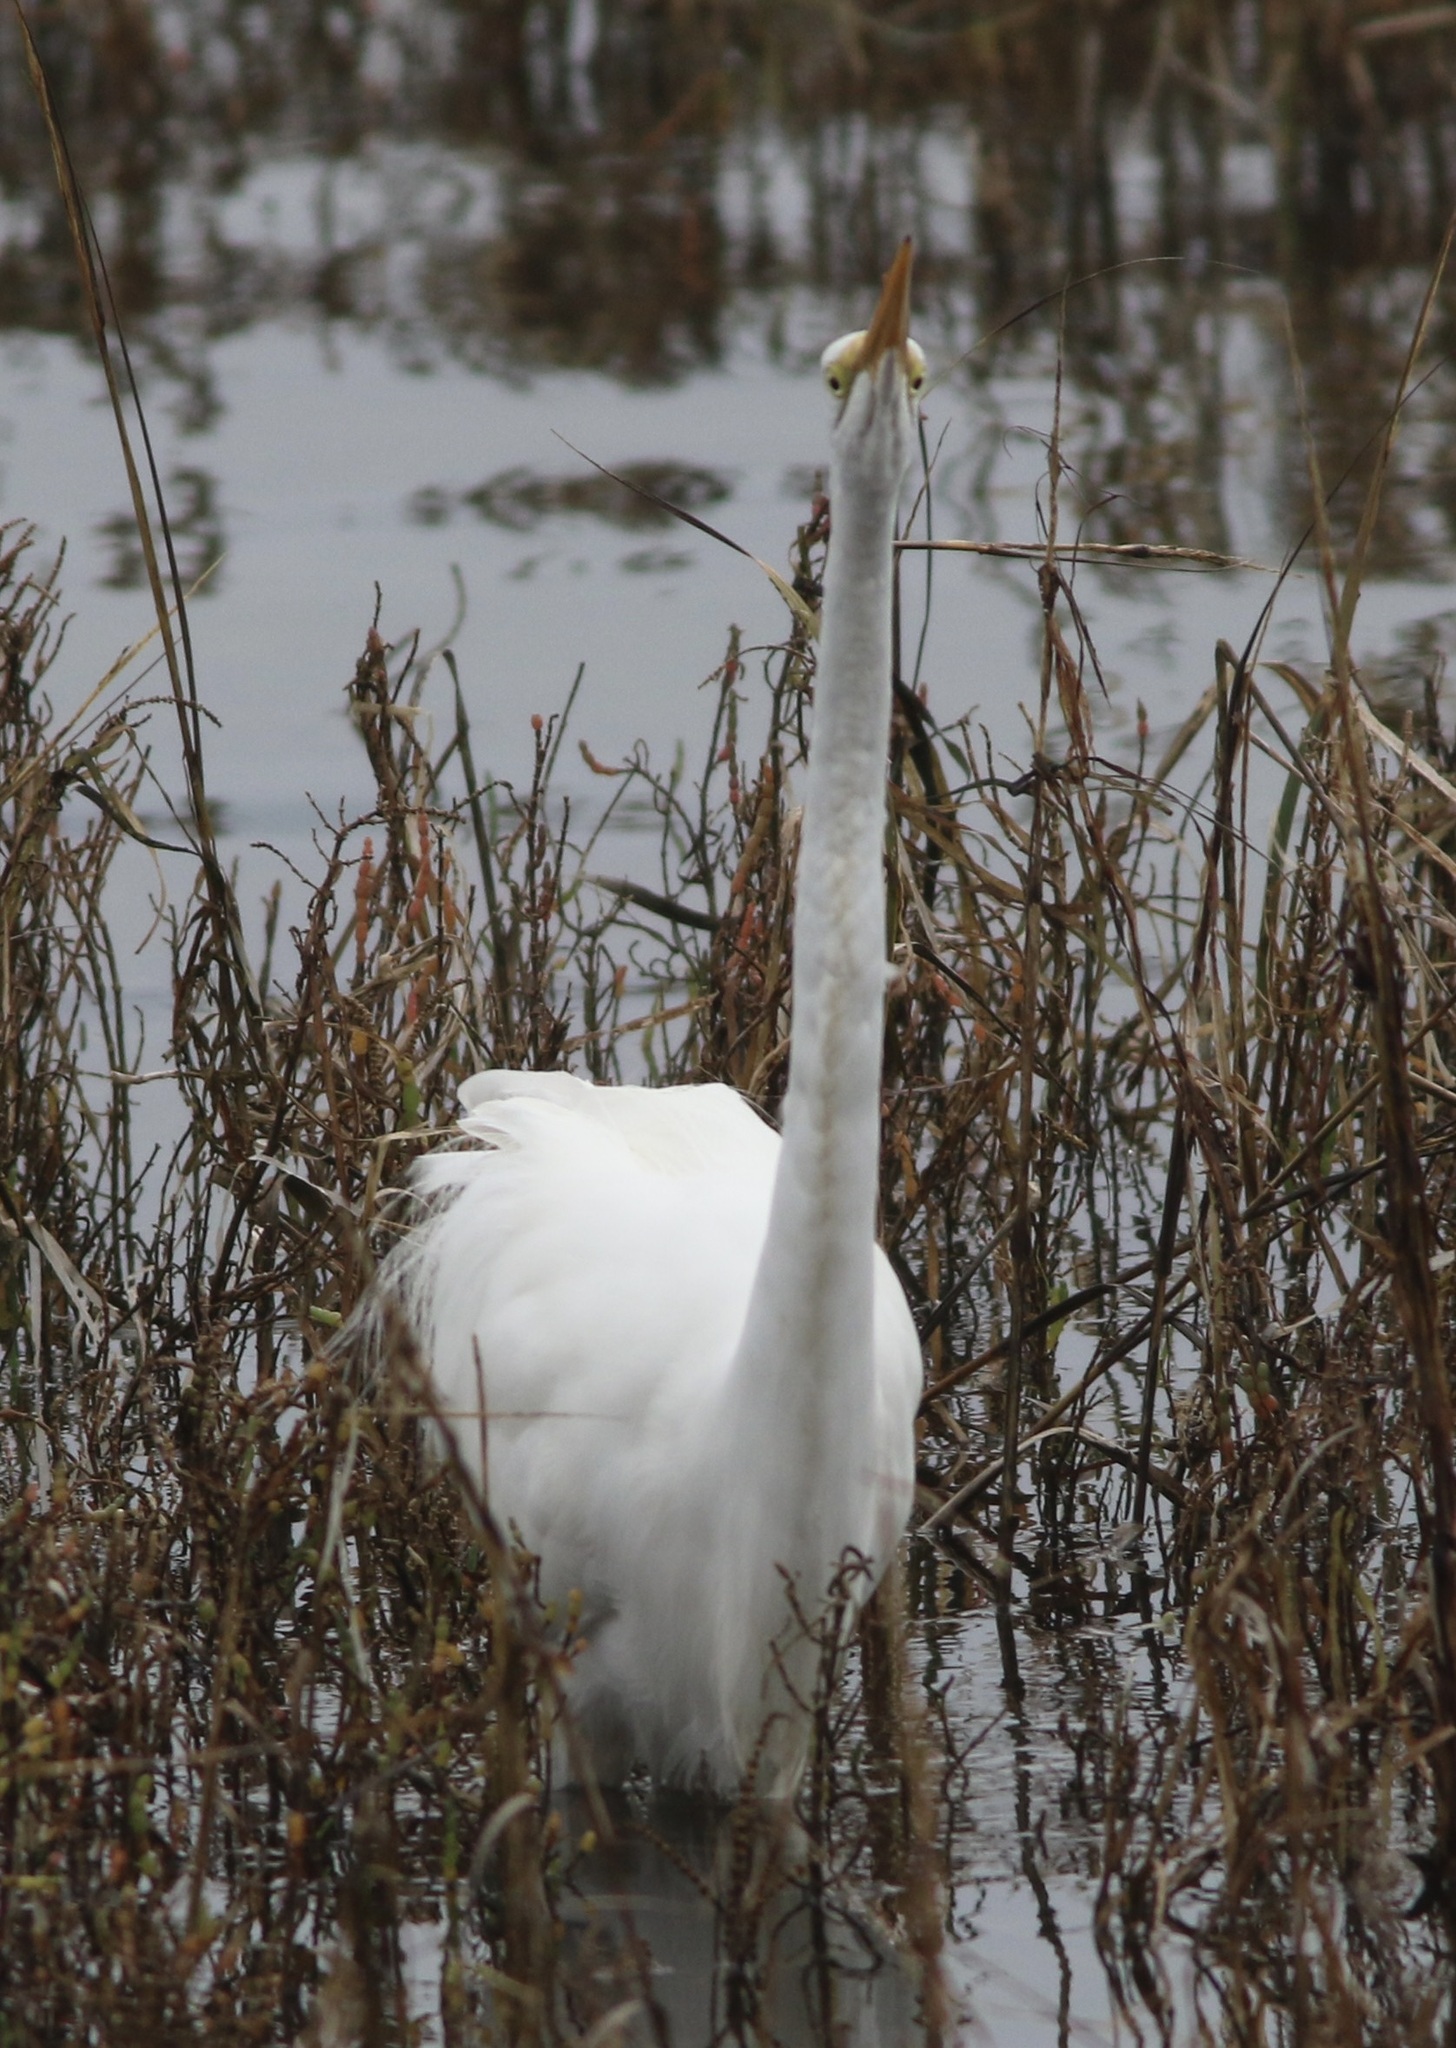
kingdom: Animalia
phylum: Chordata
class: Aves
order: Pelecaniformes
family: Ardeidae
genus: Ardea
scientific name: Ardea alba
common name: Great egret
